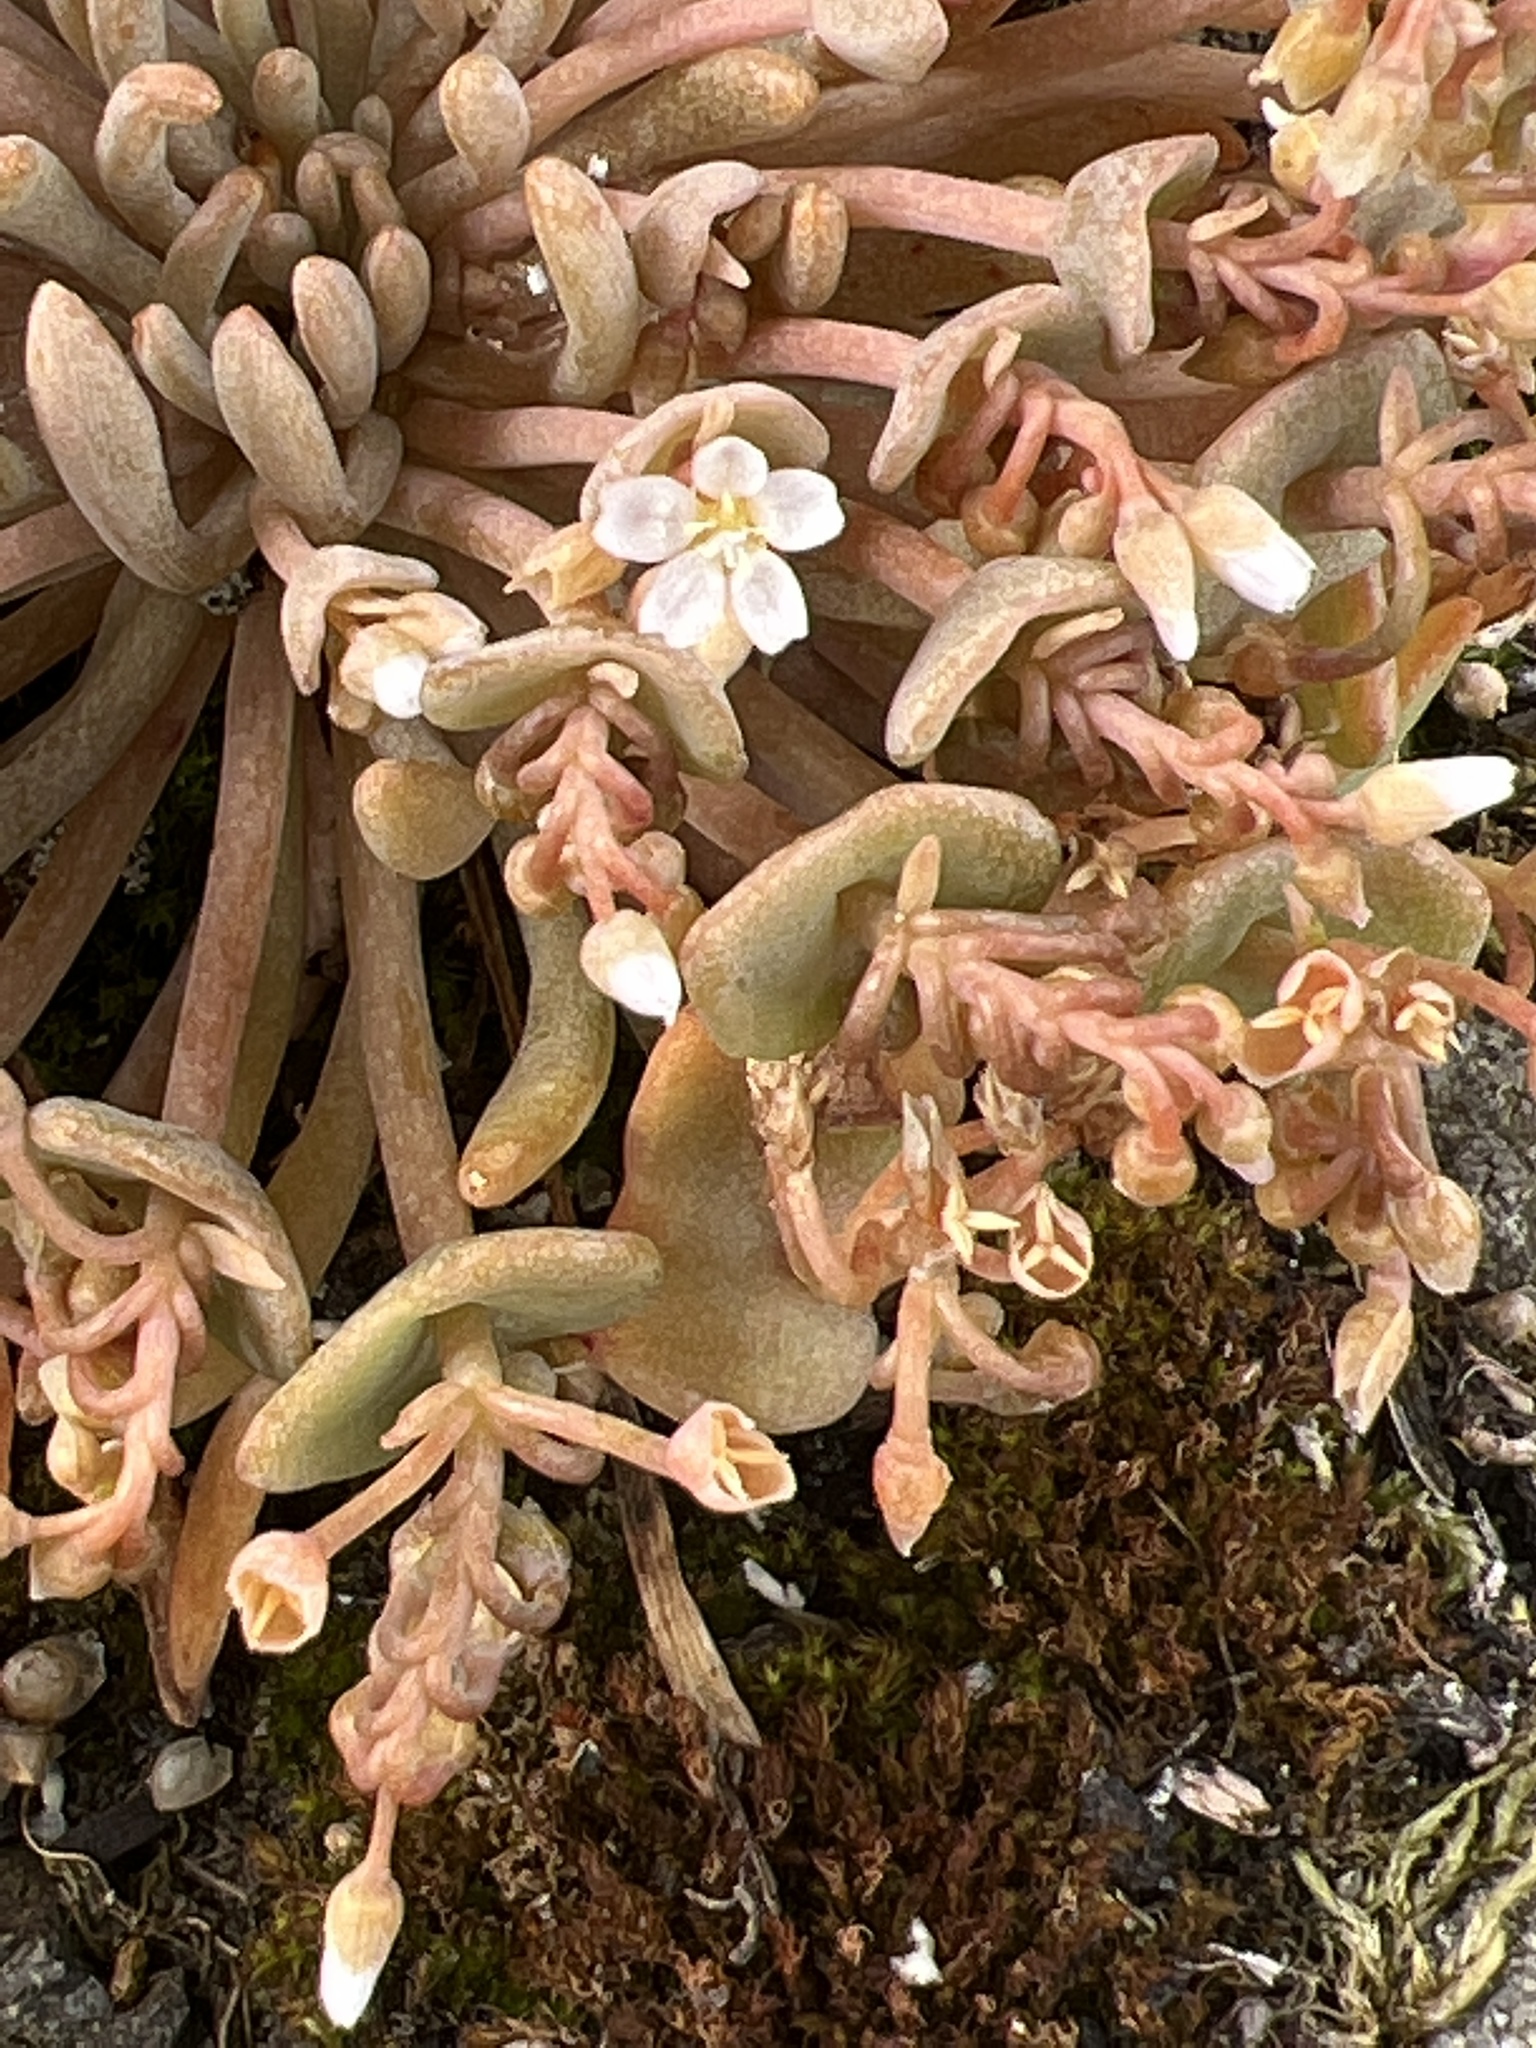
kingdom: Plantae
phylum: Tracheophyta
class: Magnoliopsida
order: Caryophyllales
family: Montiaceae
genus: Claytonia
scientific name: Claytonia exigua
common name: Pale spring beauty
